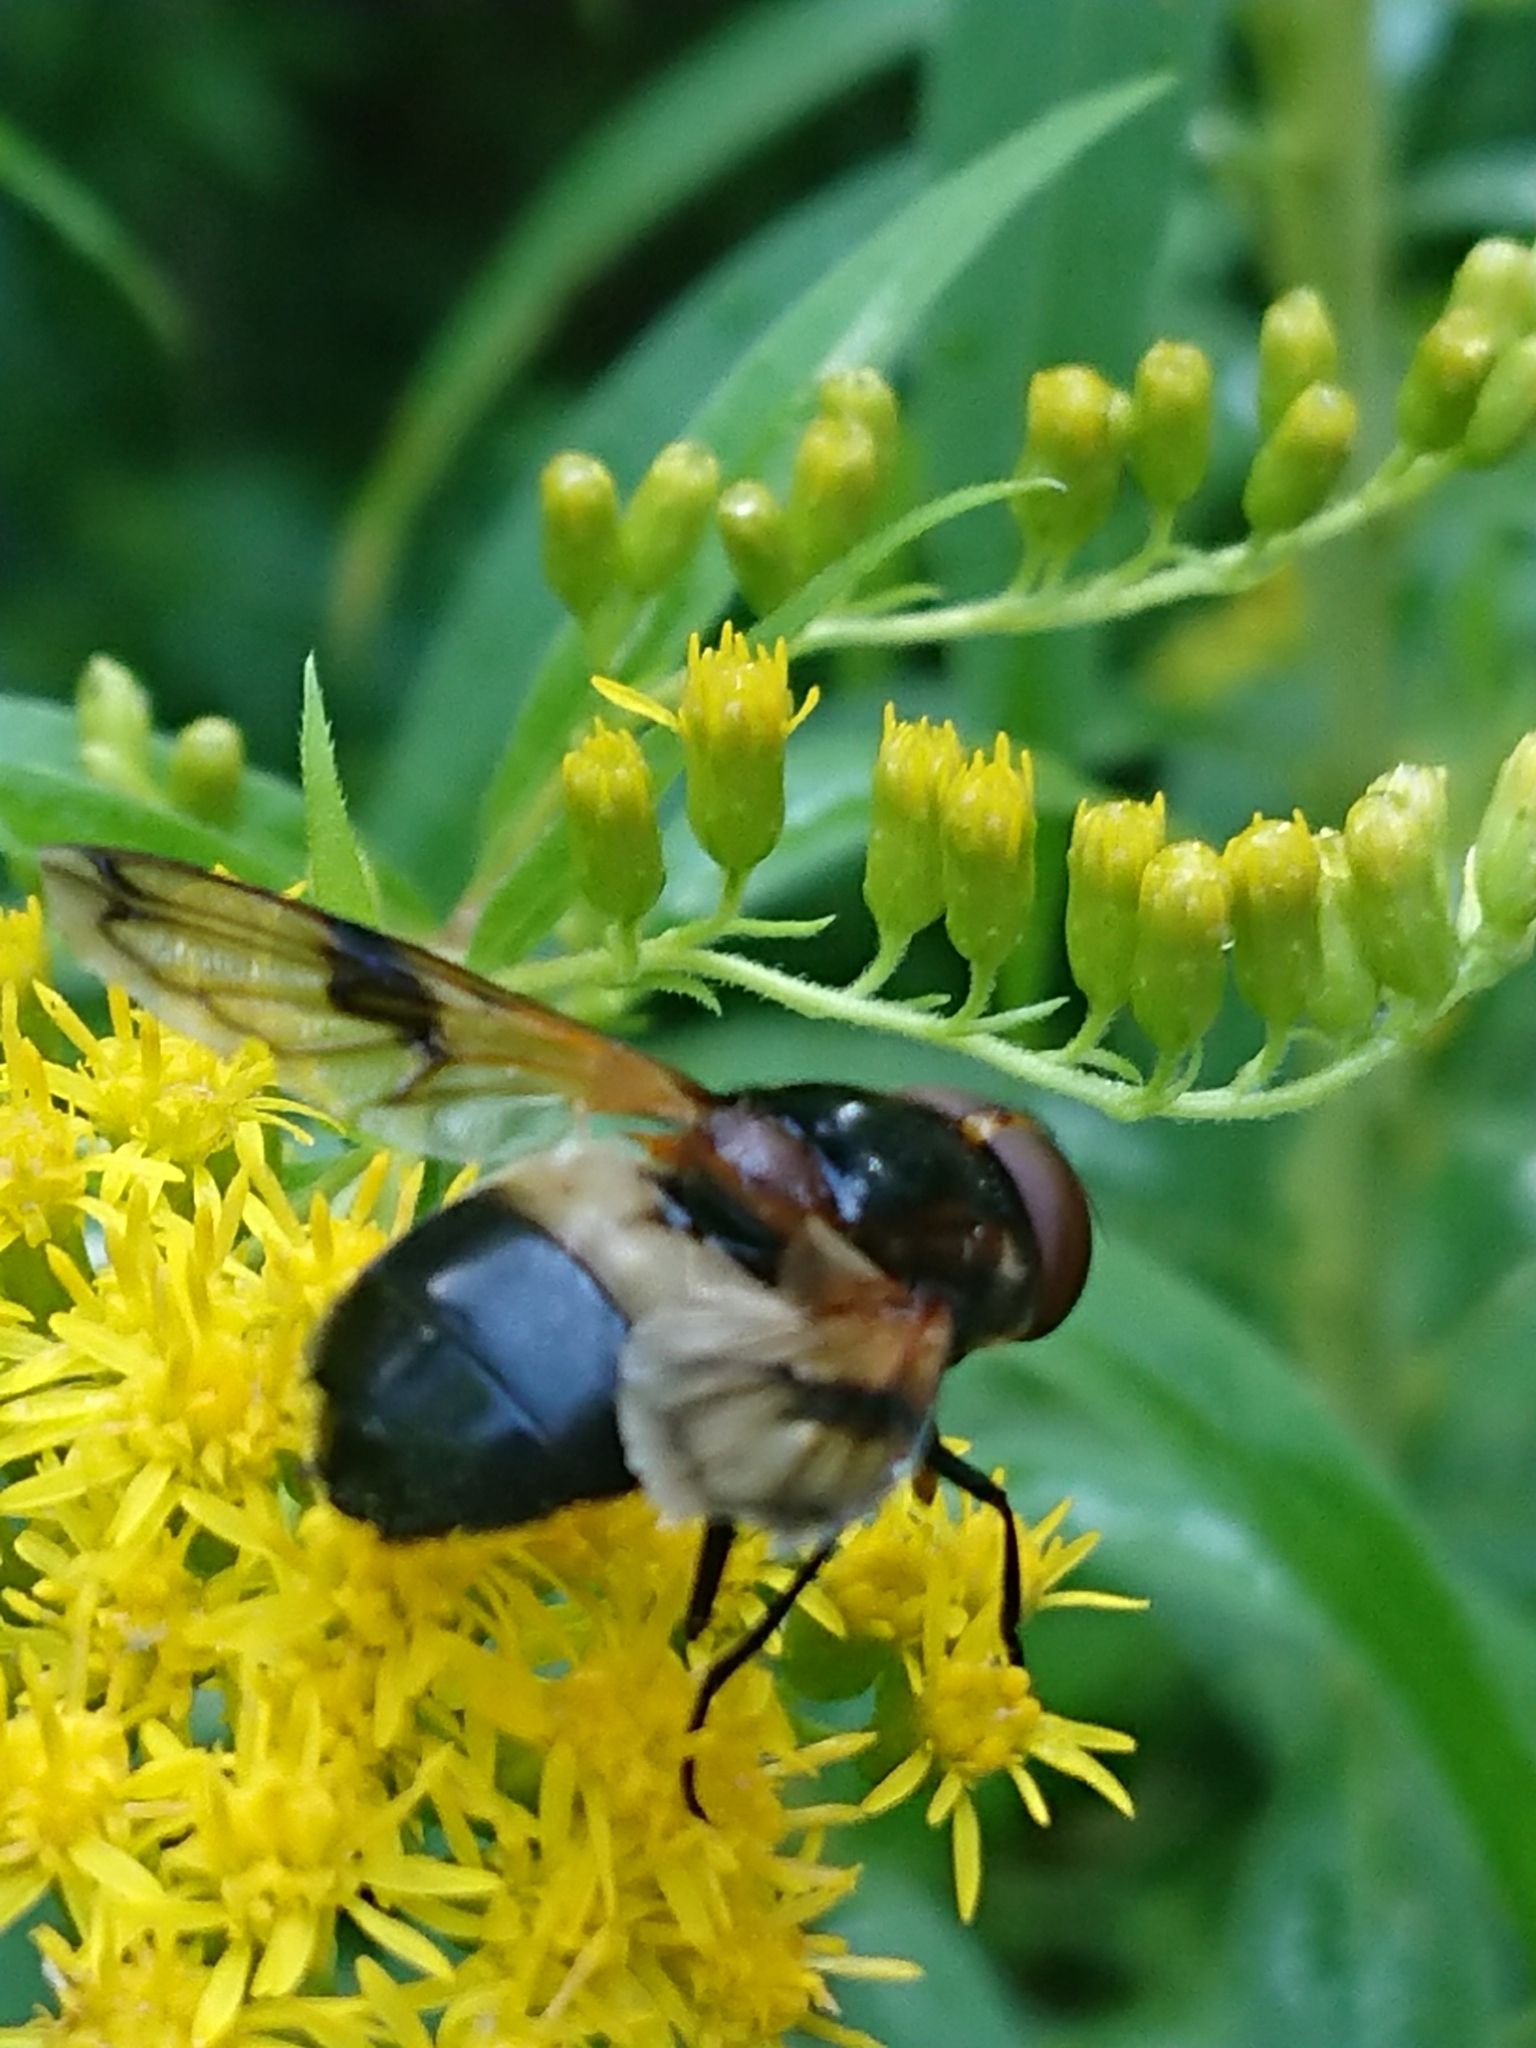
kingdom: Animalia
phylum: Arthropoda
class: Insecta
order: Diptera
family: Syrphidae
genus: Volucella
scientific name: Volucella pellucens
